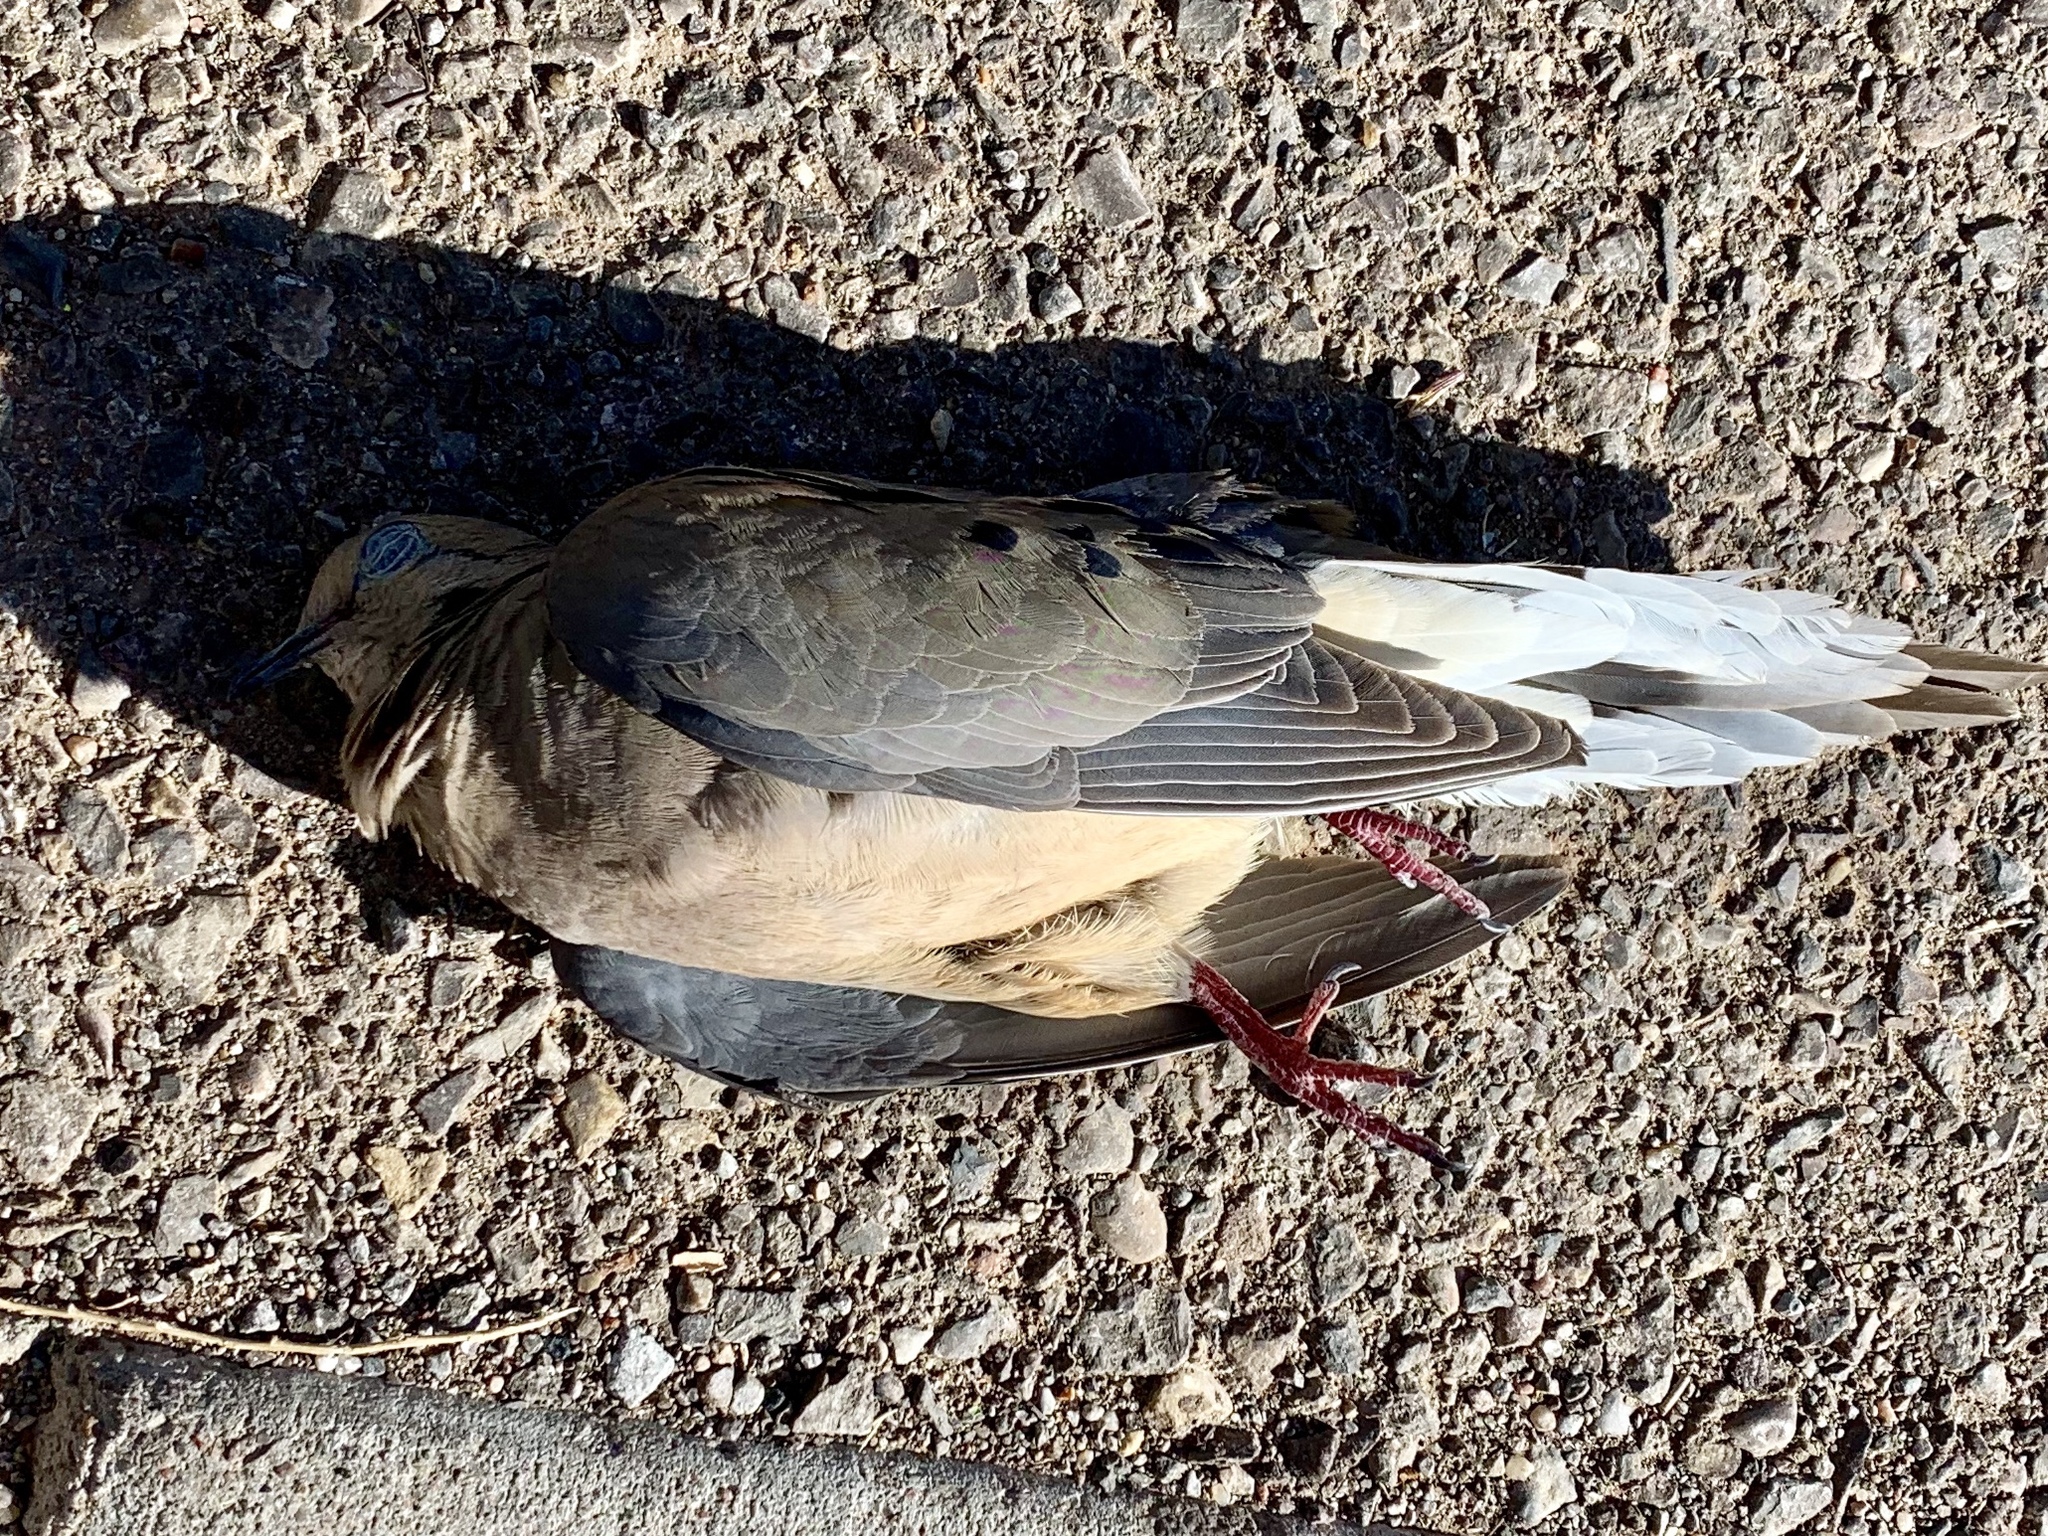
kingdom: Animalia
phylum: Chordata
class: Aves
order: Columbiformes
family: Columbidae
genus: Zenaida
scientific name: Zenaida macroura
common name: Mourning dove
